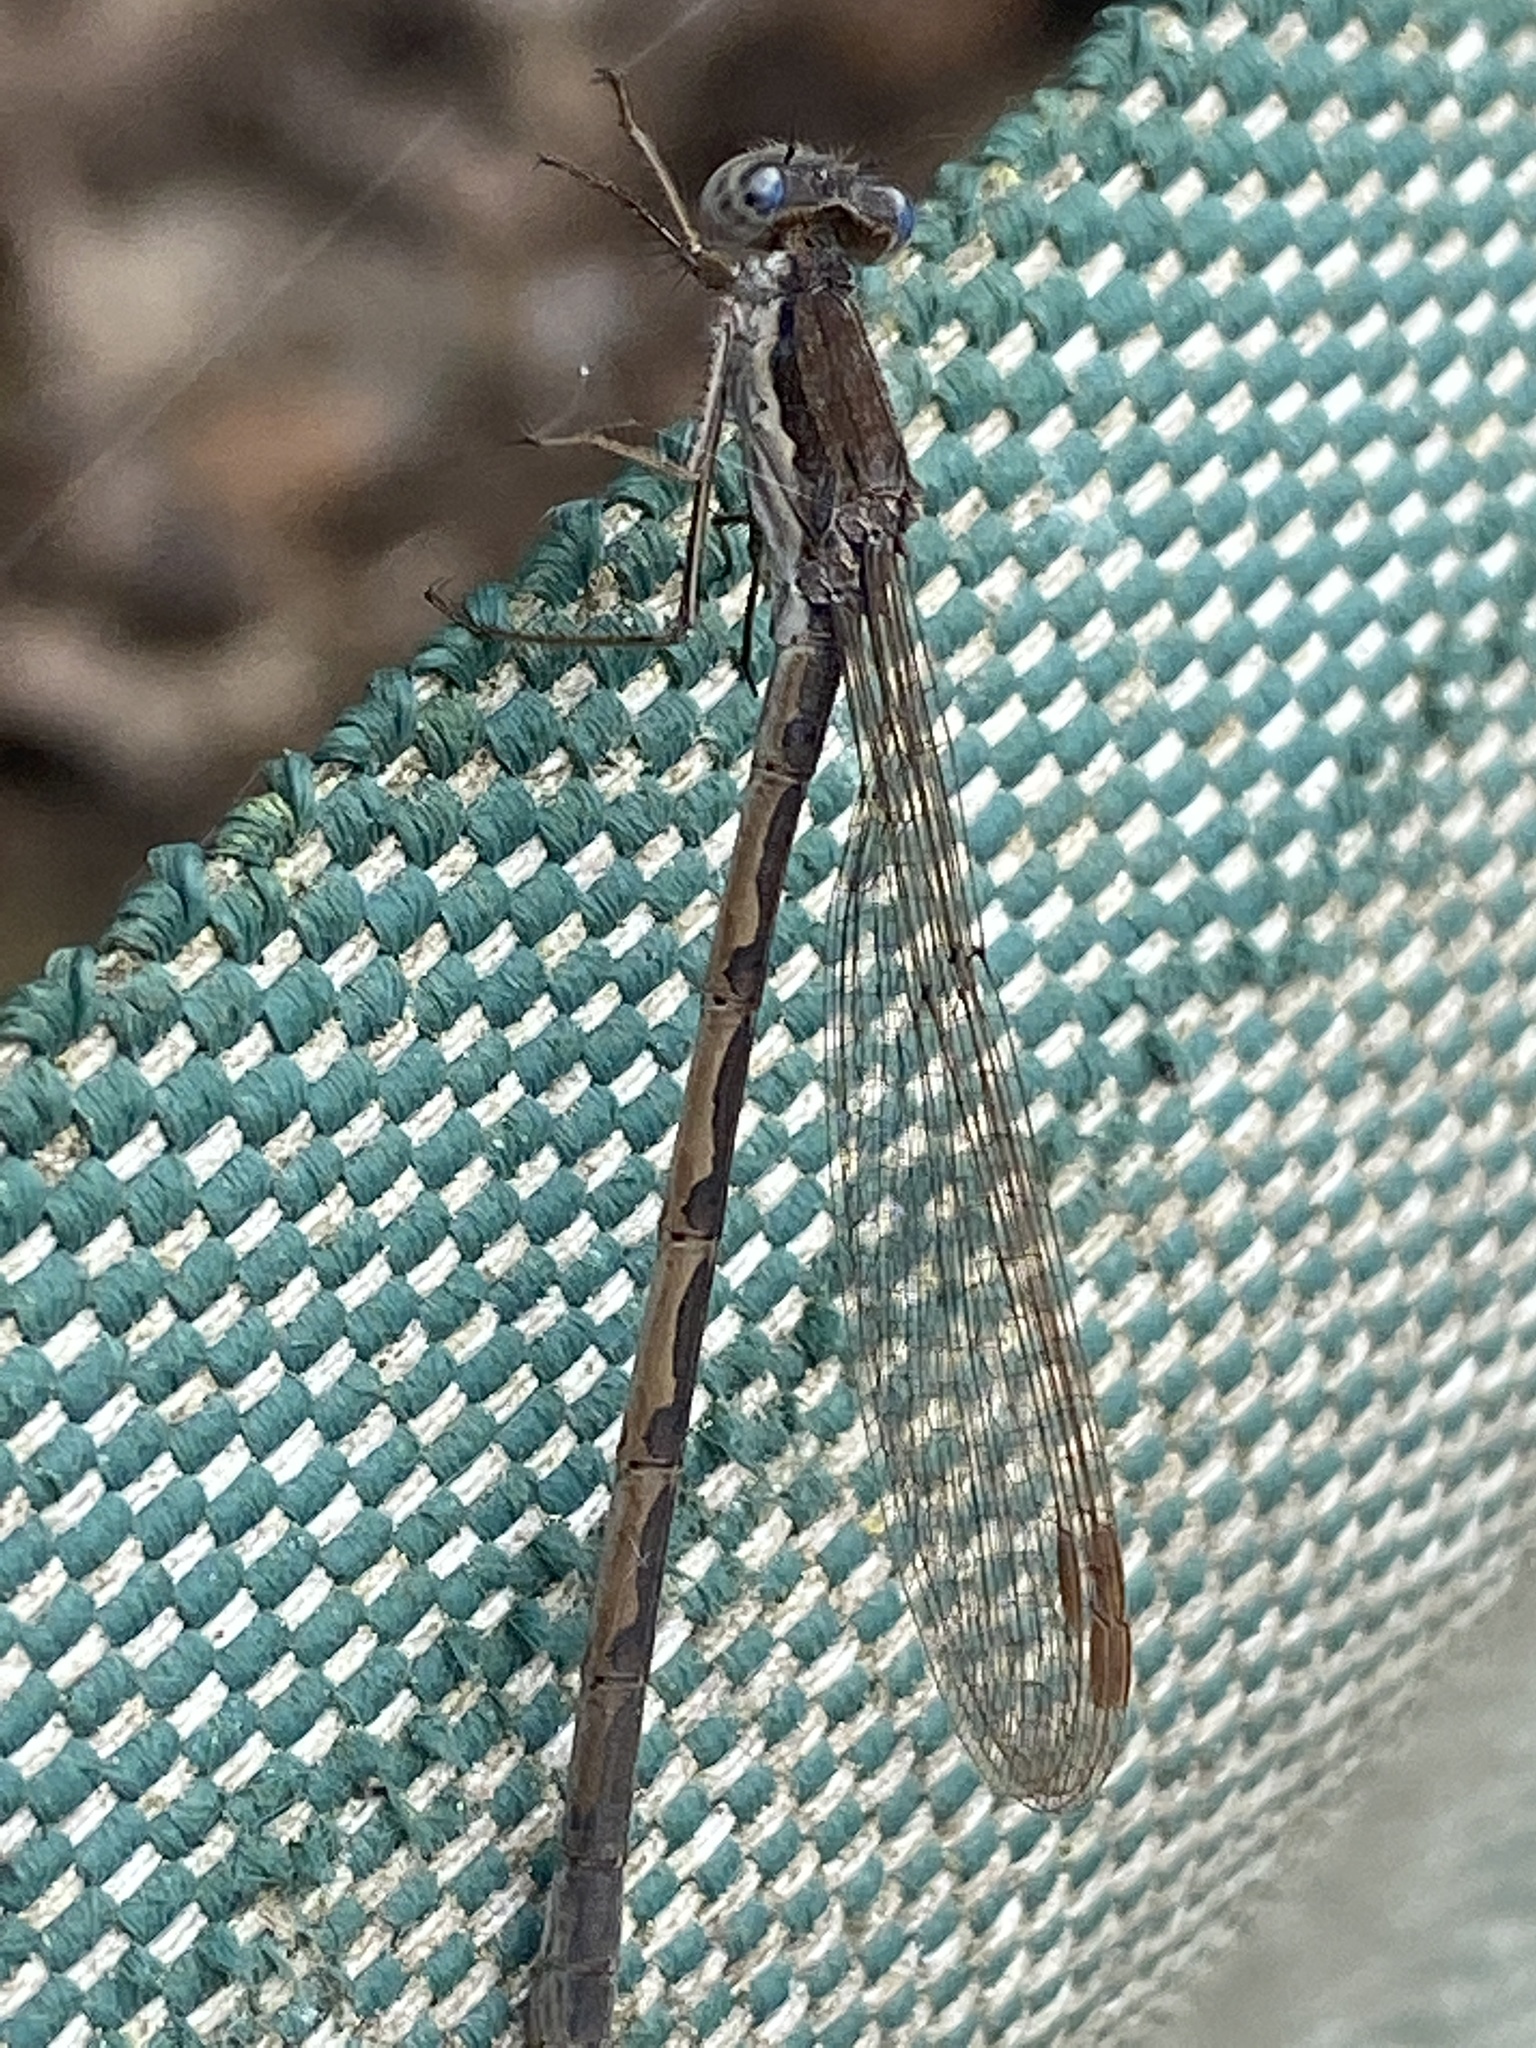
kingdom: Animalia
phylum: Arthropoda
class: Insecta
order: Odonata
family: Lestidae
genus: Sympecma
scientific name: Sympecma fusca
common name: Common winter damsel
